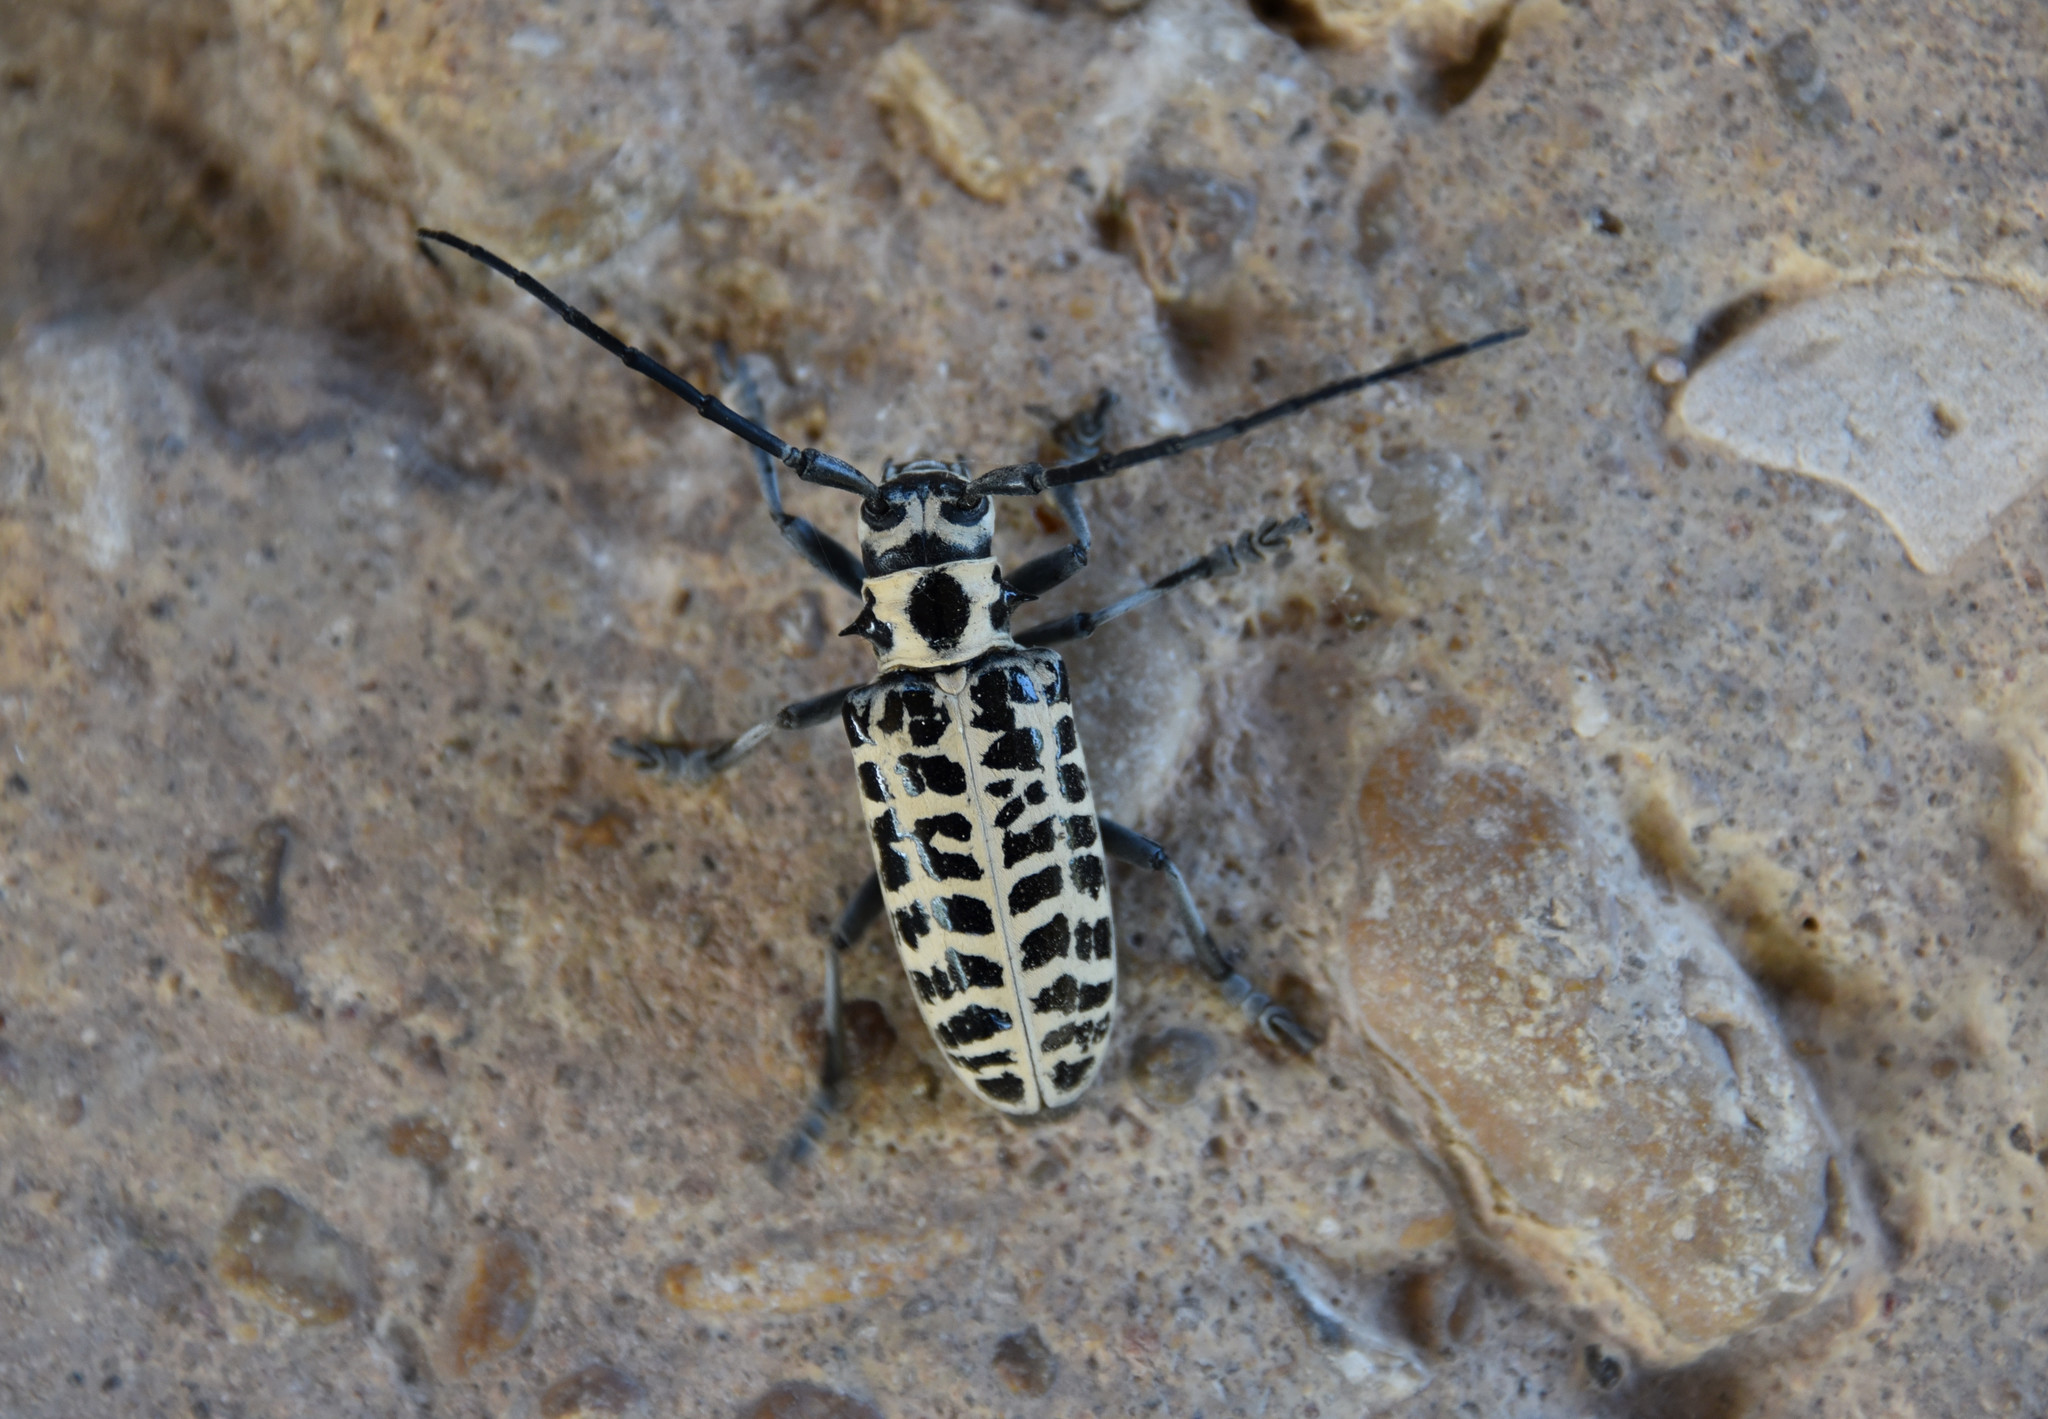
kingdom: Animalia
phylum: Arthropoda
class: Insecta
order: Coleoptera
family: Cerambycidae
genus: Plectrodera
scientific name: Plectrodera scalator
